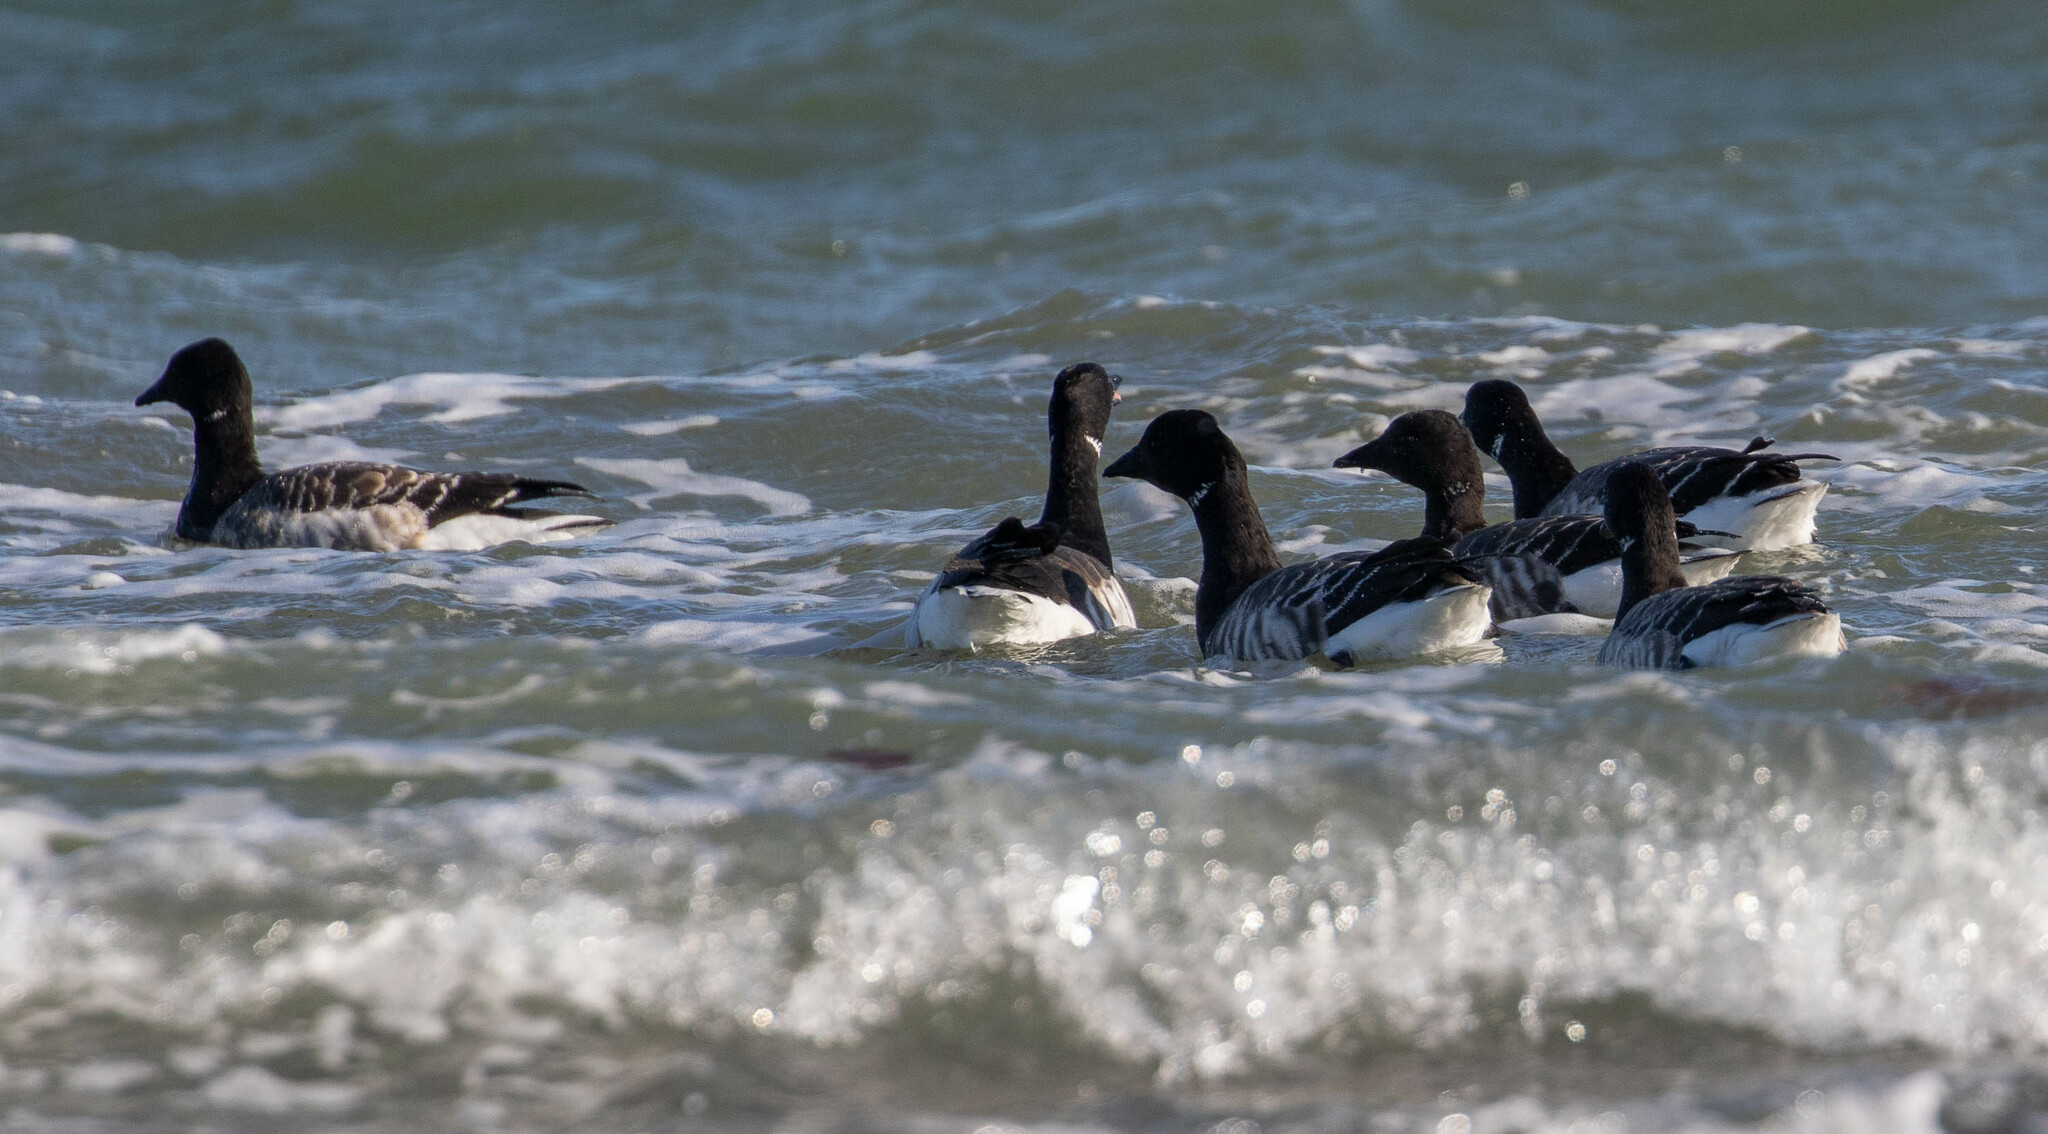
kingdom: Animalia
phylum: Chordata
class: Aves
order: Anseriformes
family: Anatidae
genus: Branta
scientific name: Branta bernicla
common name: Brant goose
